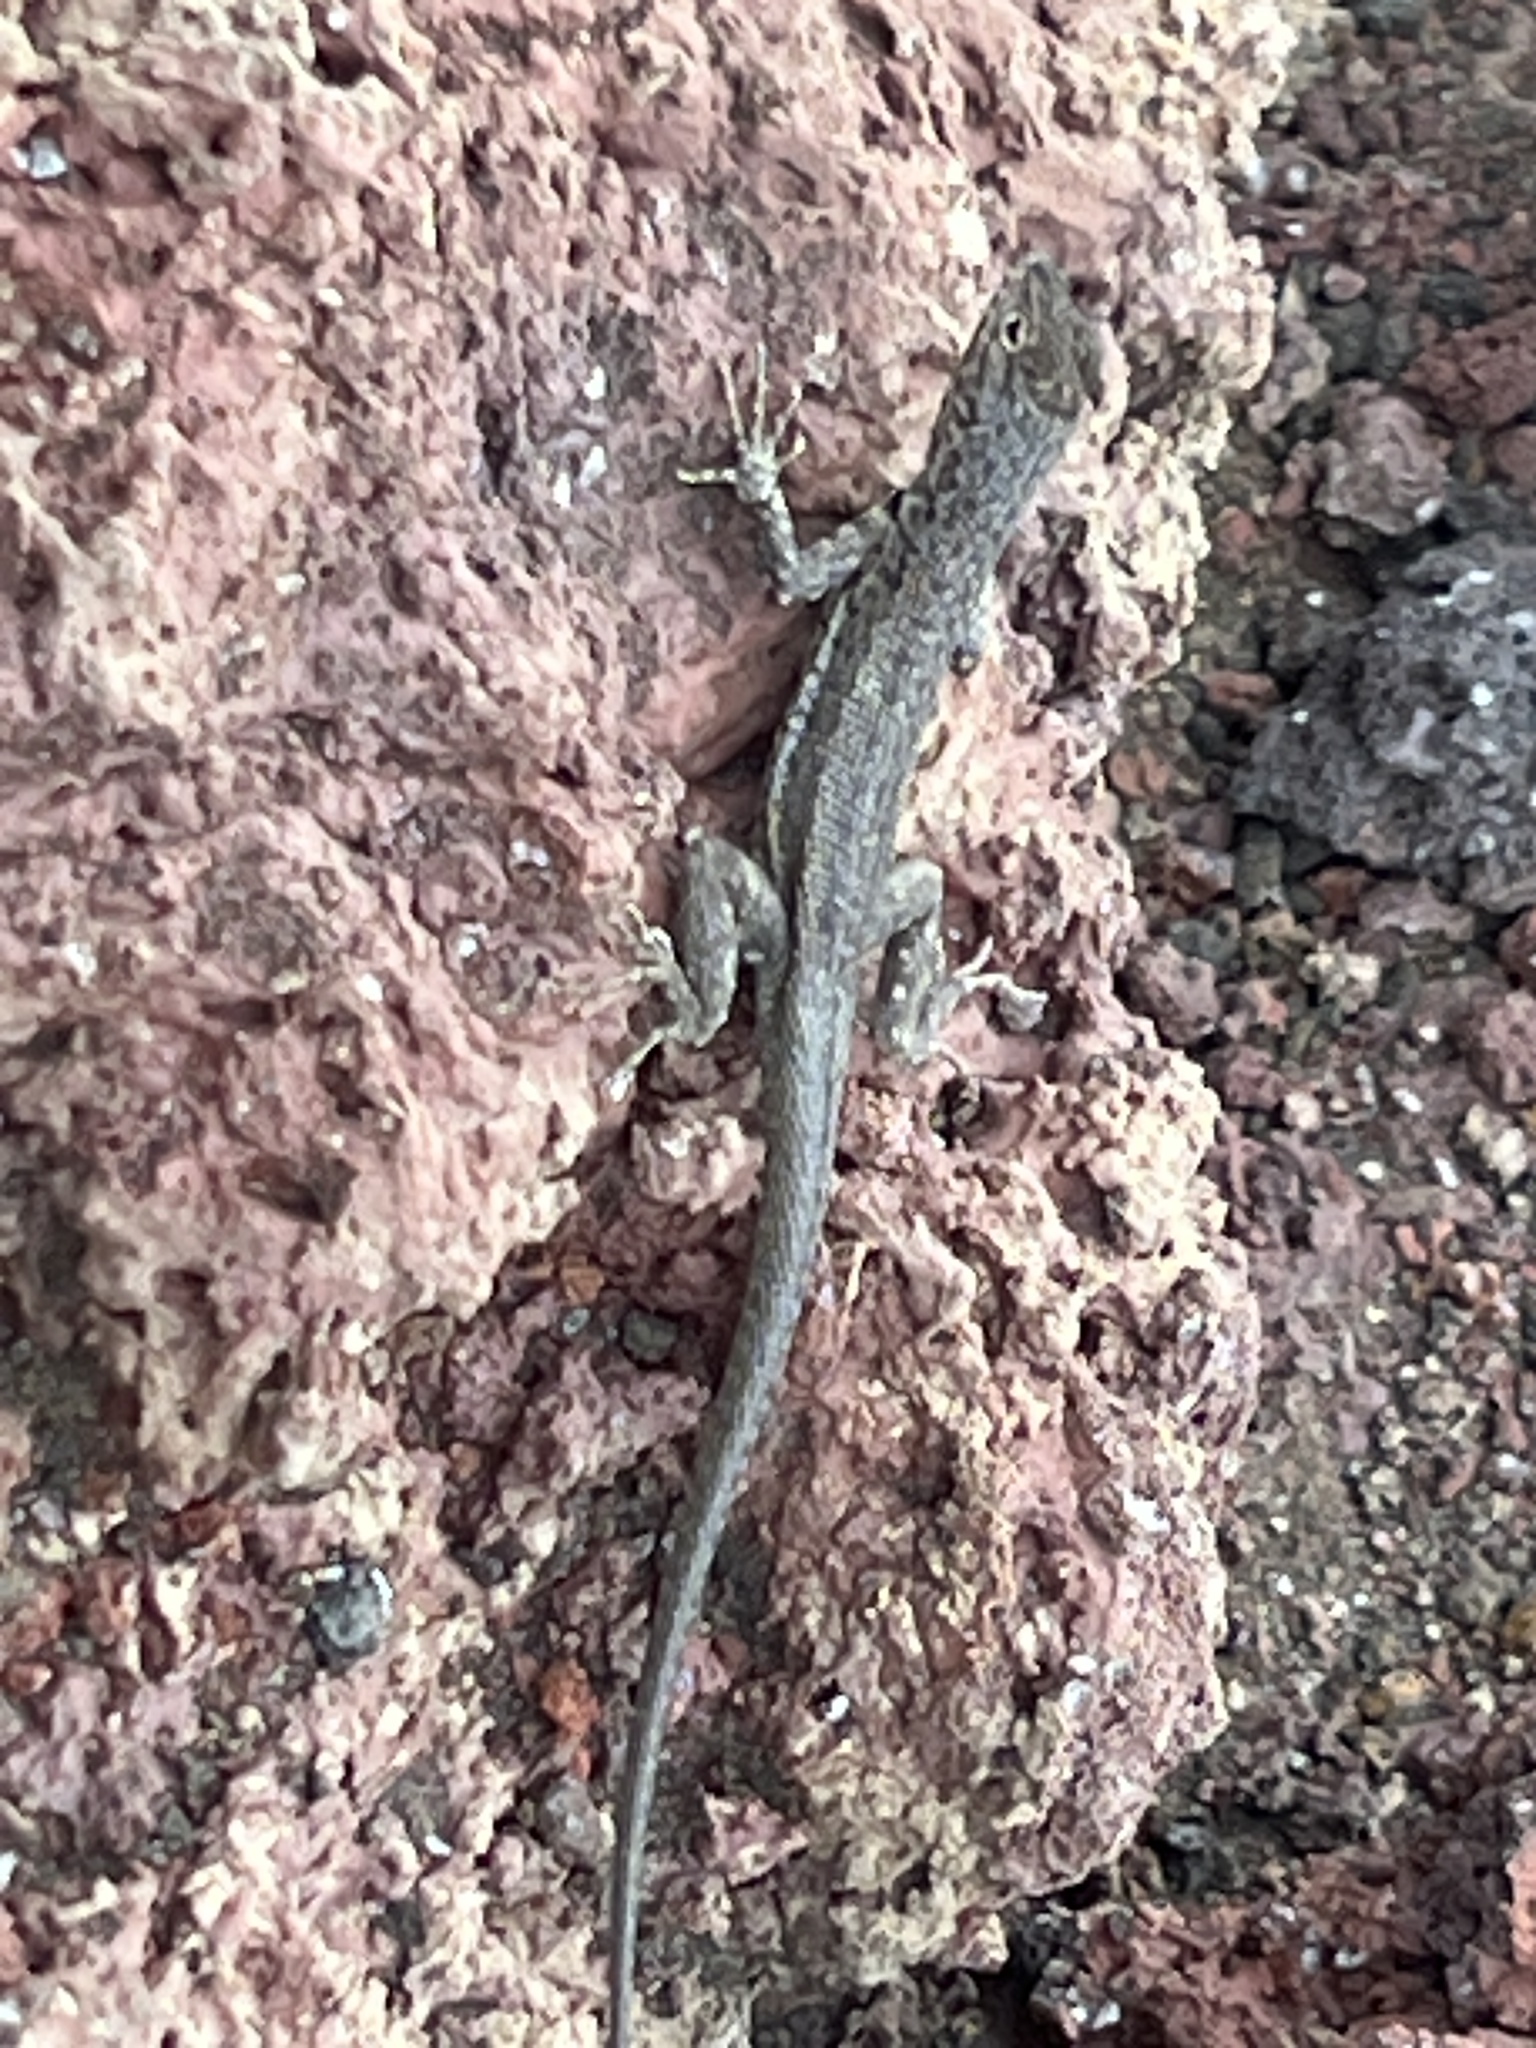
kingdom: Animalia
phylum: Chordata
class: Squamata
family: Tropiduridae
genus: Microlophus
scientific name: Microlophus albemarlensis
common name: Galapagos lava lizard
